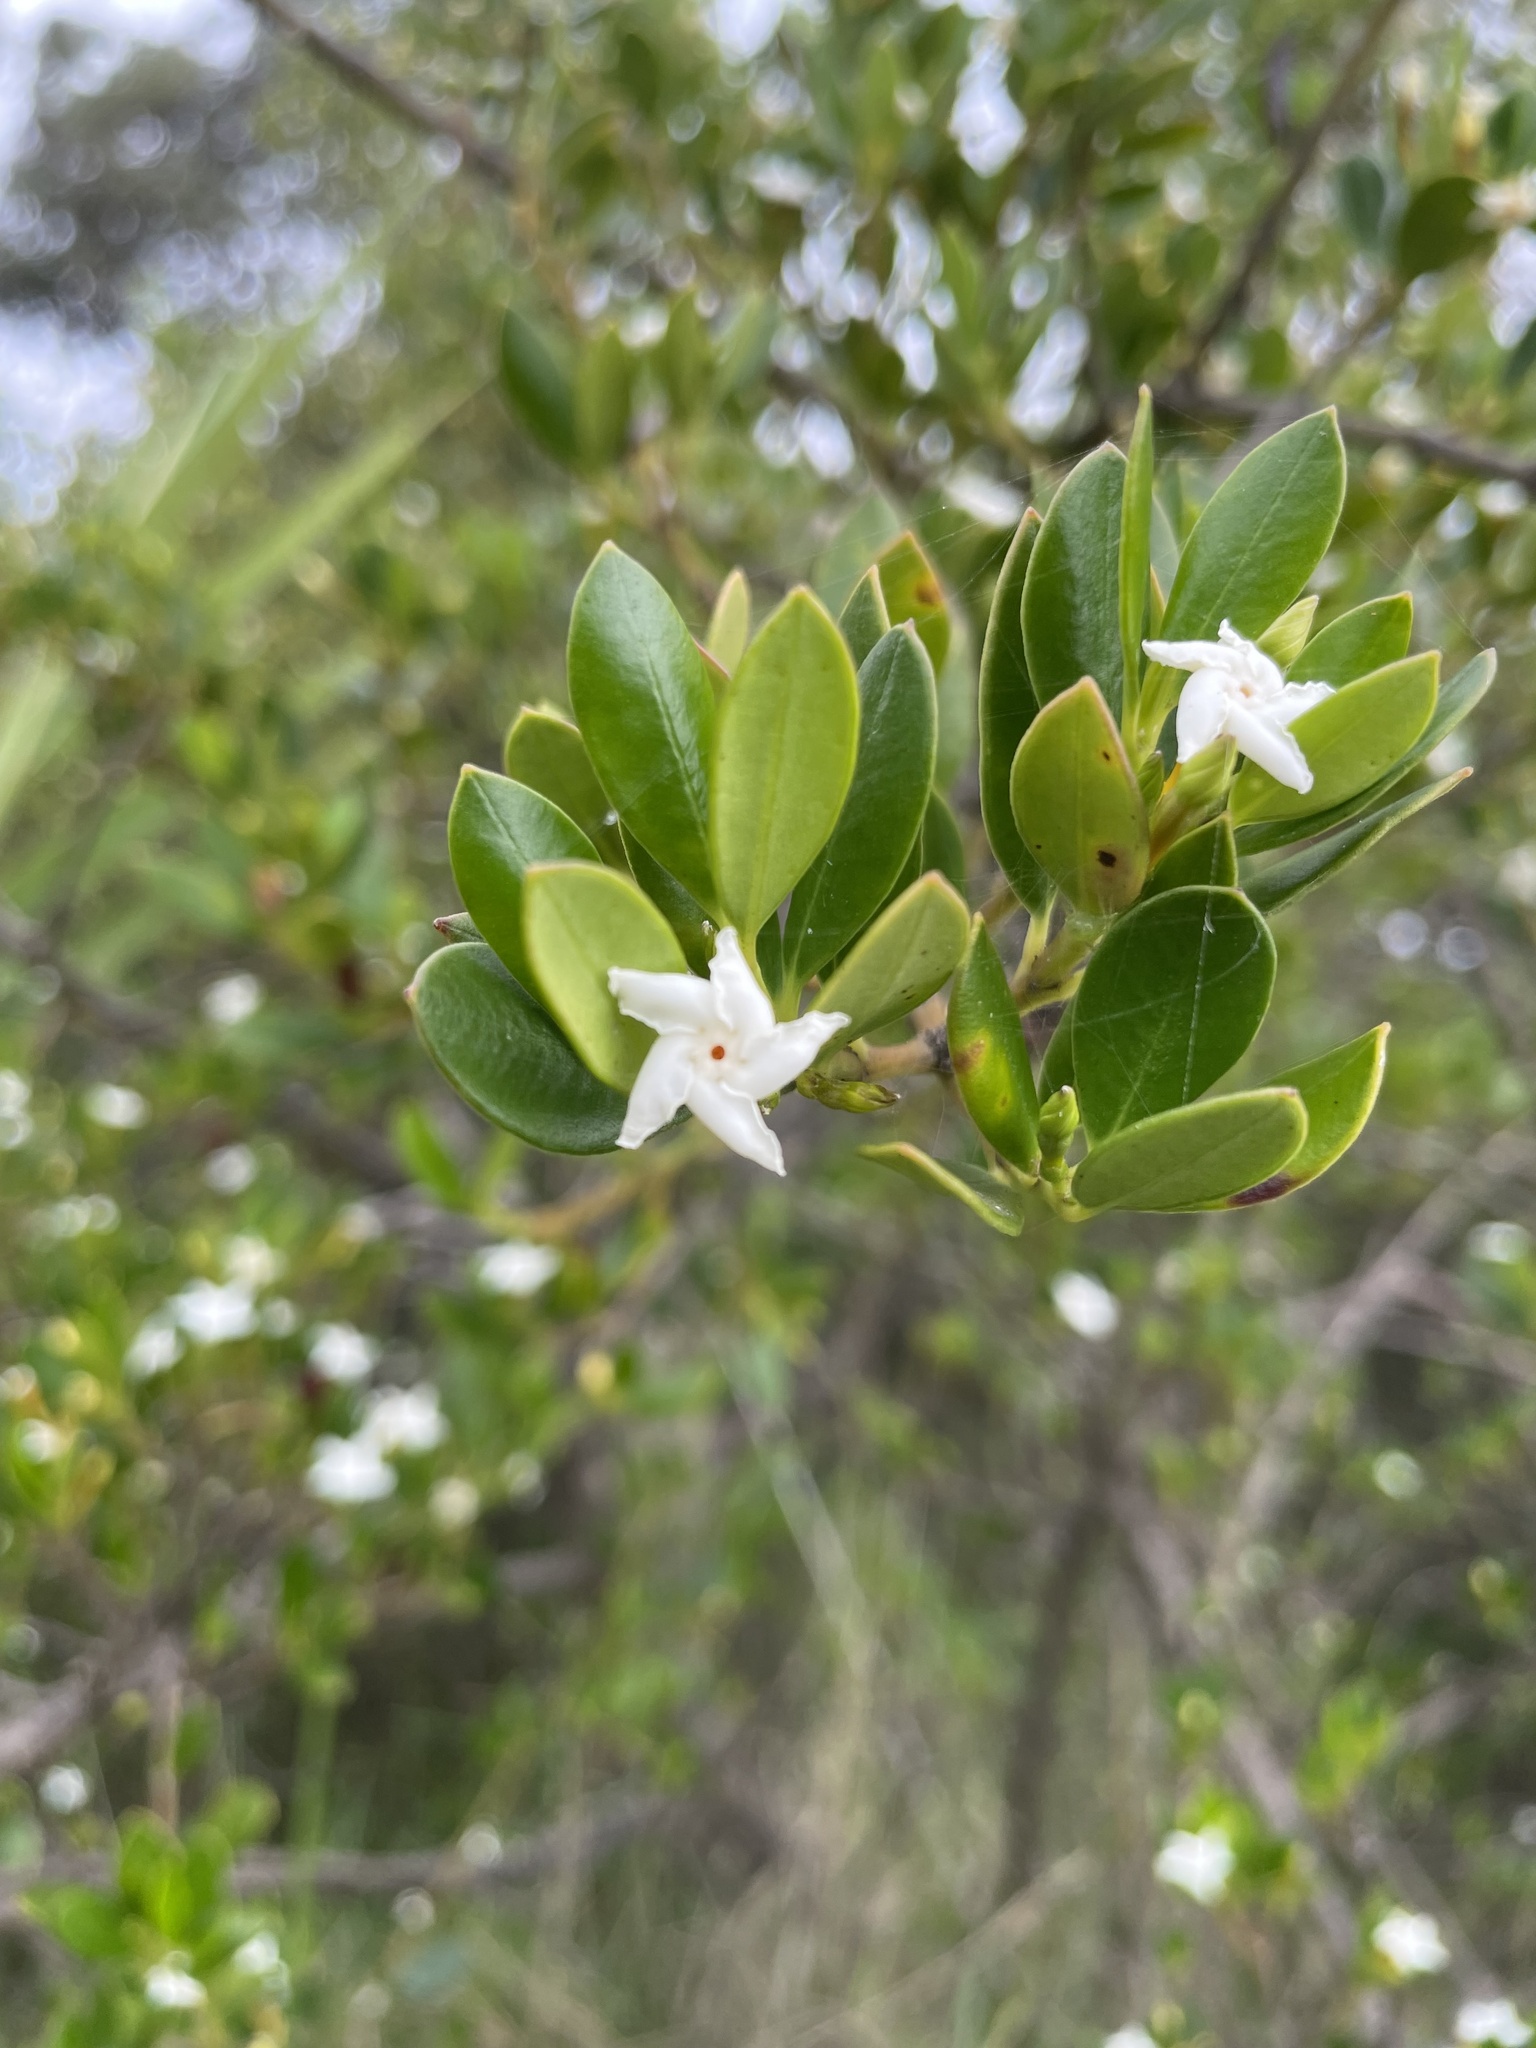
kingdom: Plantae
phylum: Tracheophyta
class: Magnoliopsida
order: Gentianales
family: Apocynaceae
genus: Alyxia
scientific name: Alyxia buxifolia
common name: Dysentery-bush
